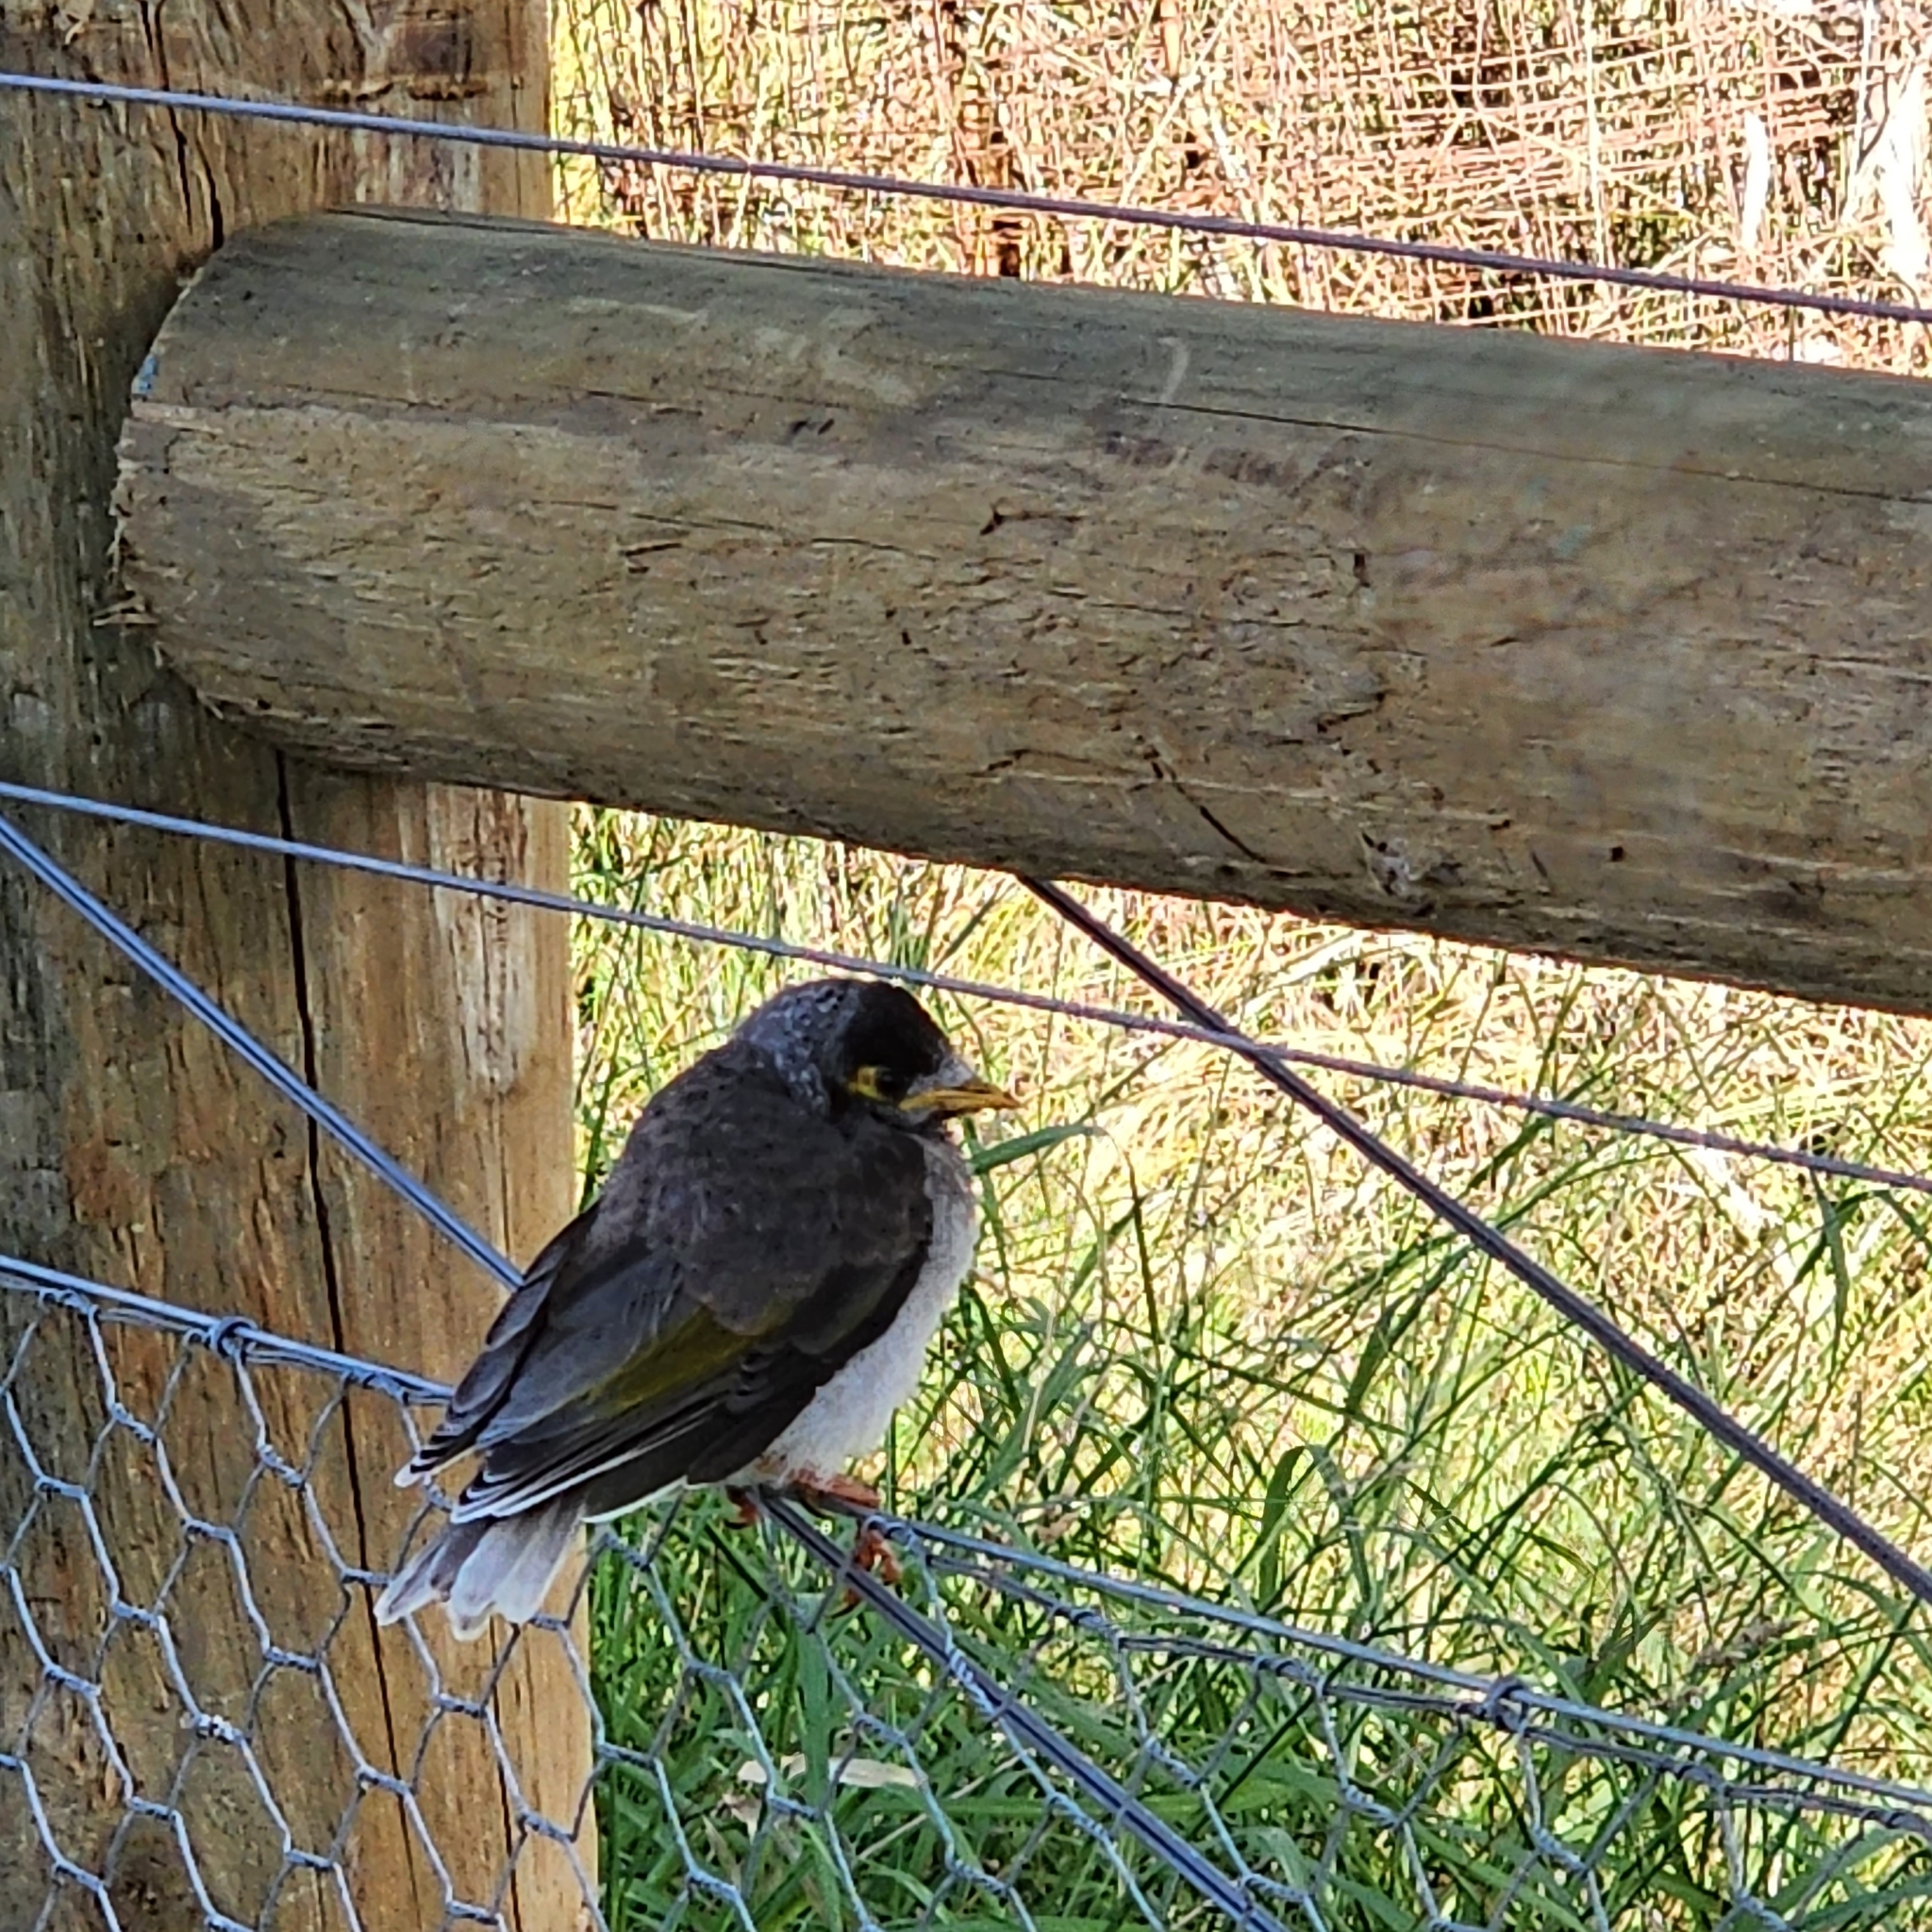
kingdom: Animalia
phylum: Chordata
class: Aves
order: Passeriformes
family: Meliphagidae
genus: Manorina
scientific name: Manorina melanocephala
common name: Noisy miner
